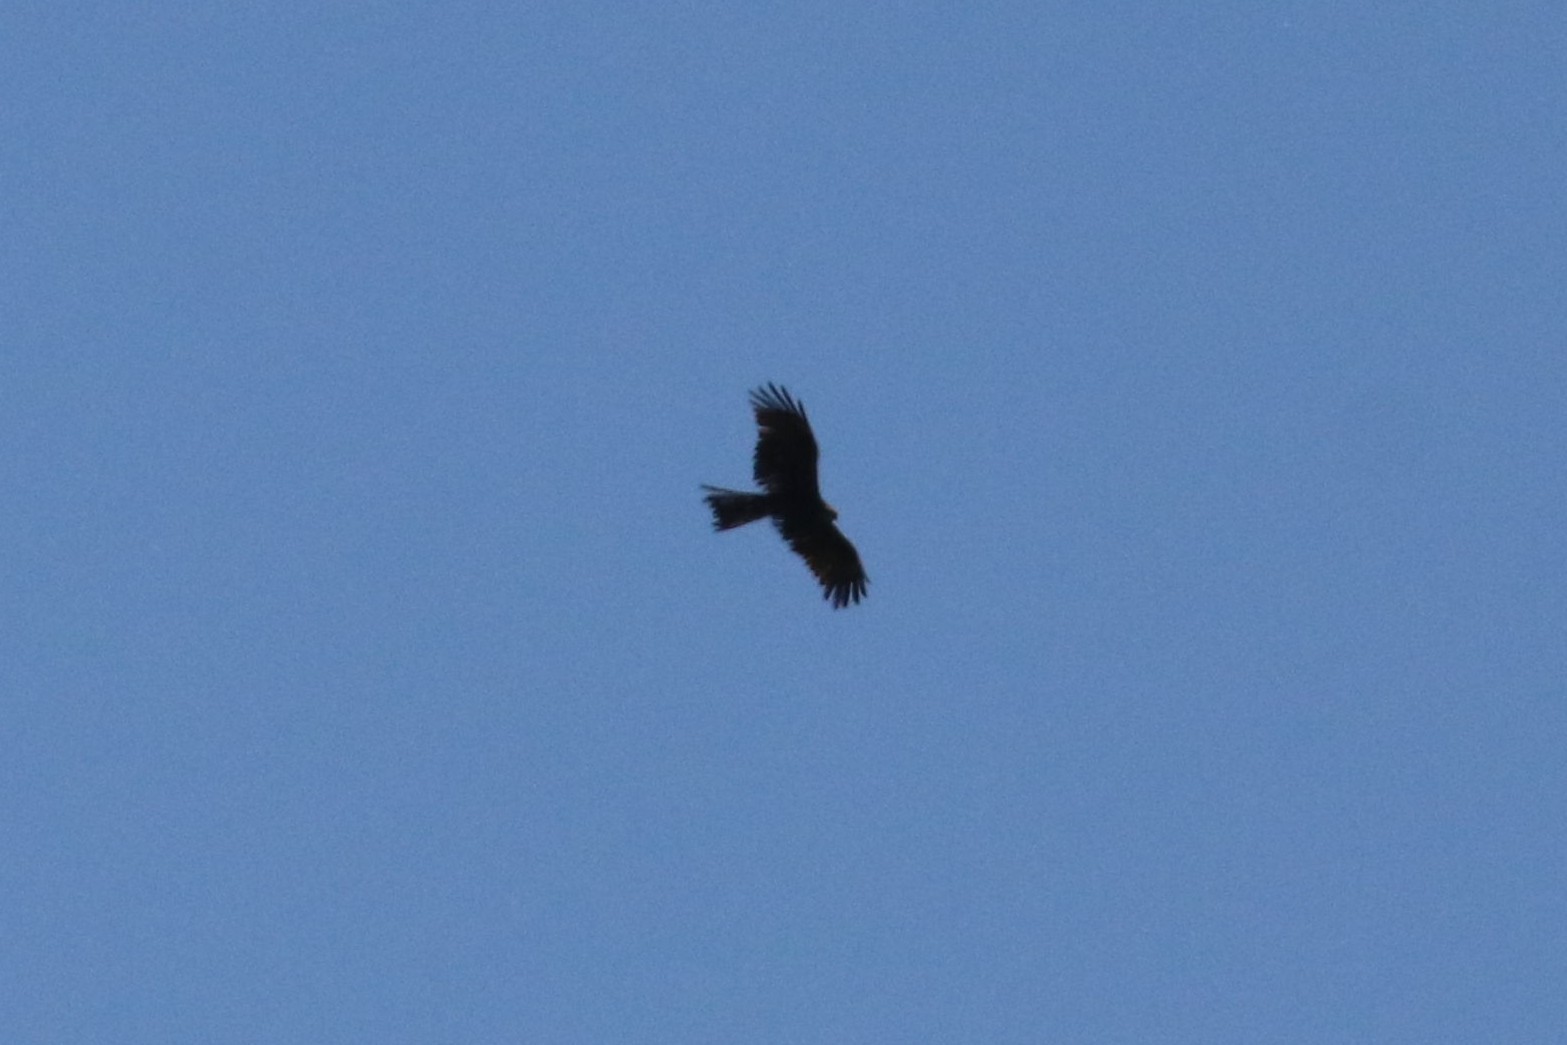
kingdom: Animalia
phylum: Chordata
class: Aves
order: Accipitriformes
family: Accipitridae
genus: Milvus
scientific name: Milvus migrans
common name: Black kite
